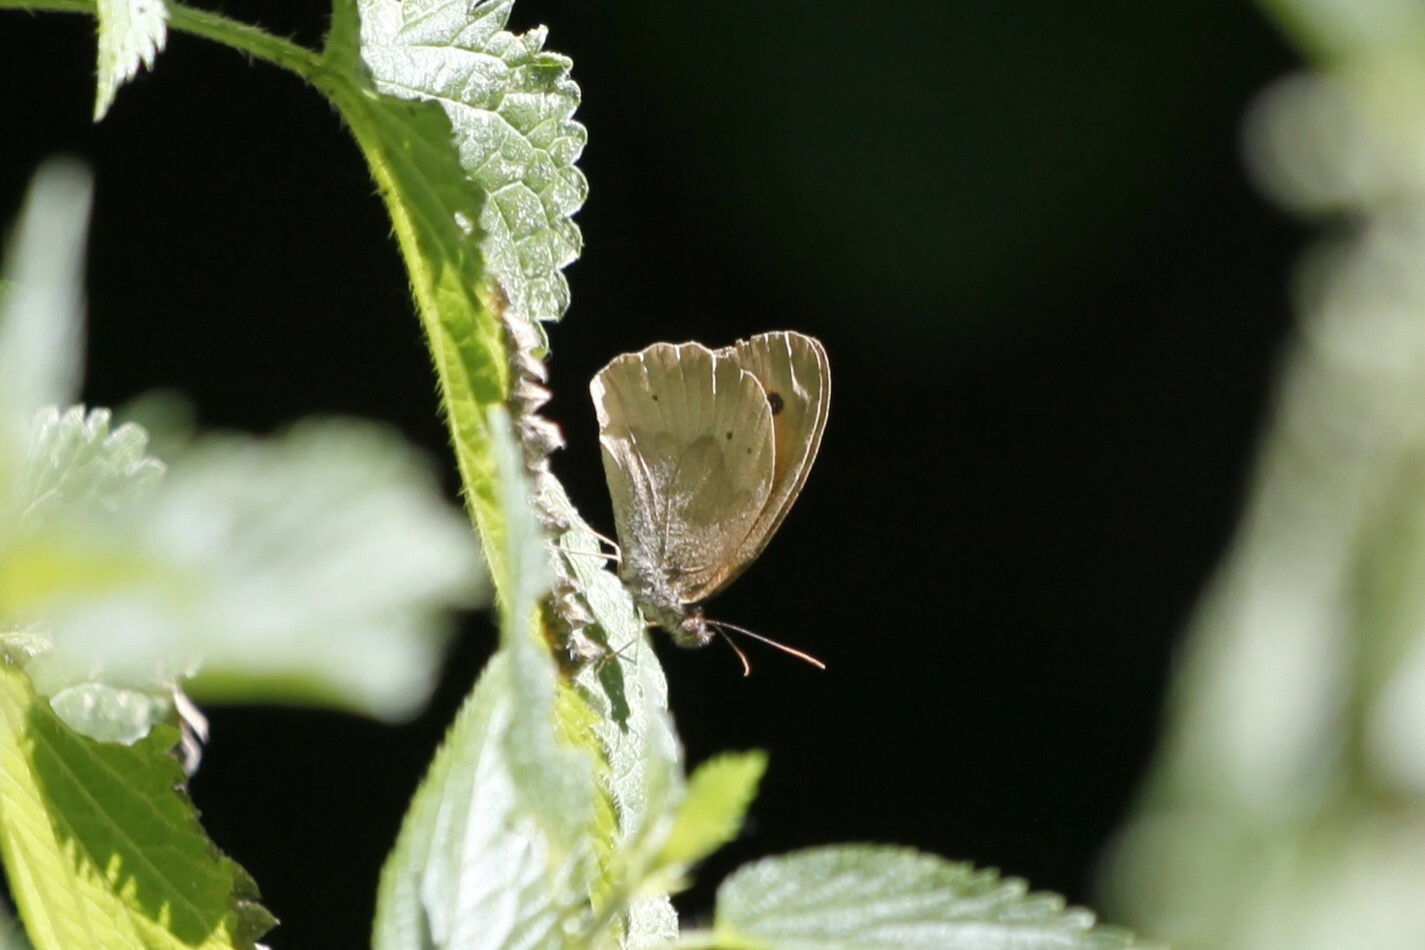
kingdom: Animalia
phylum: Arthropoda
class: Insecta
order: Lepidoptera
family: Nymphalidae
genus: Maniola
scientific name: Maniola jurtina
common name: Meadow brown
